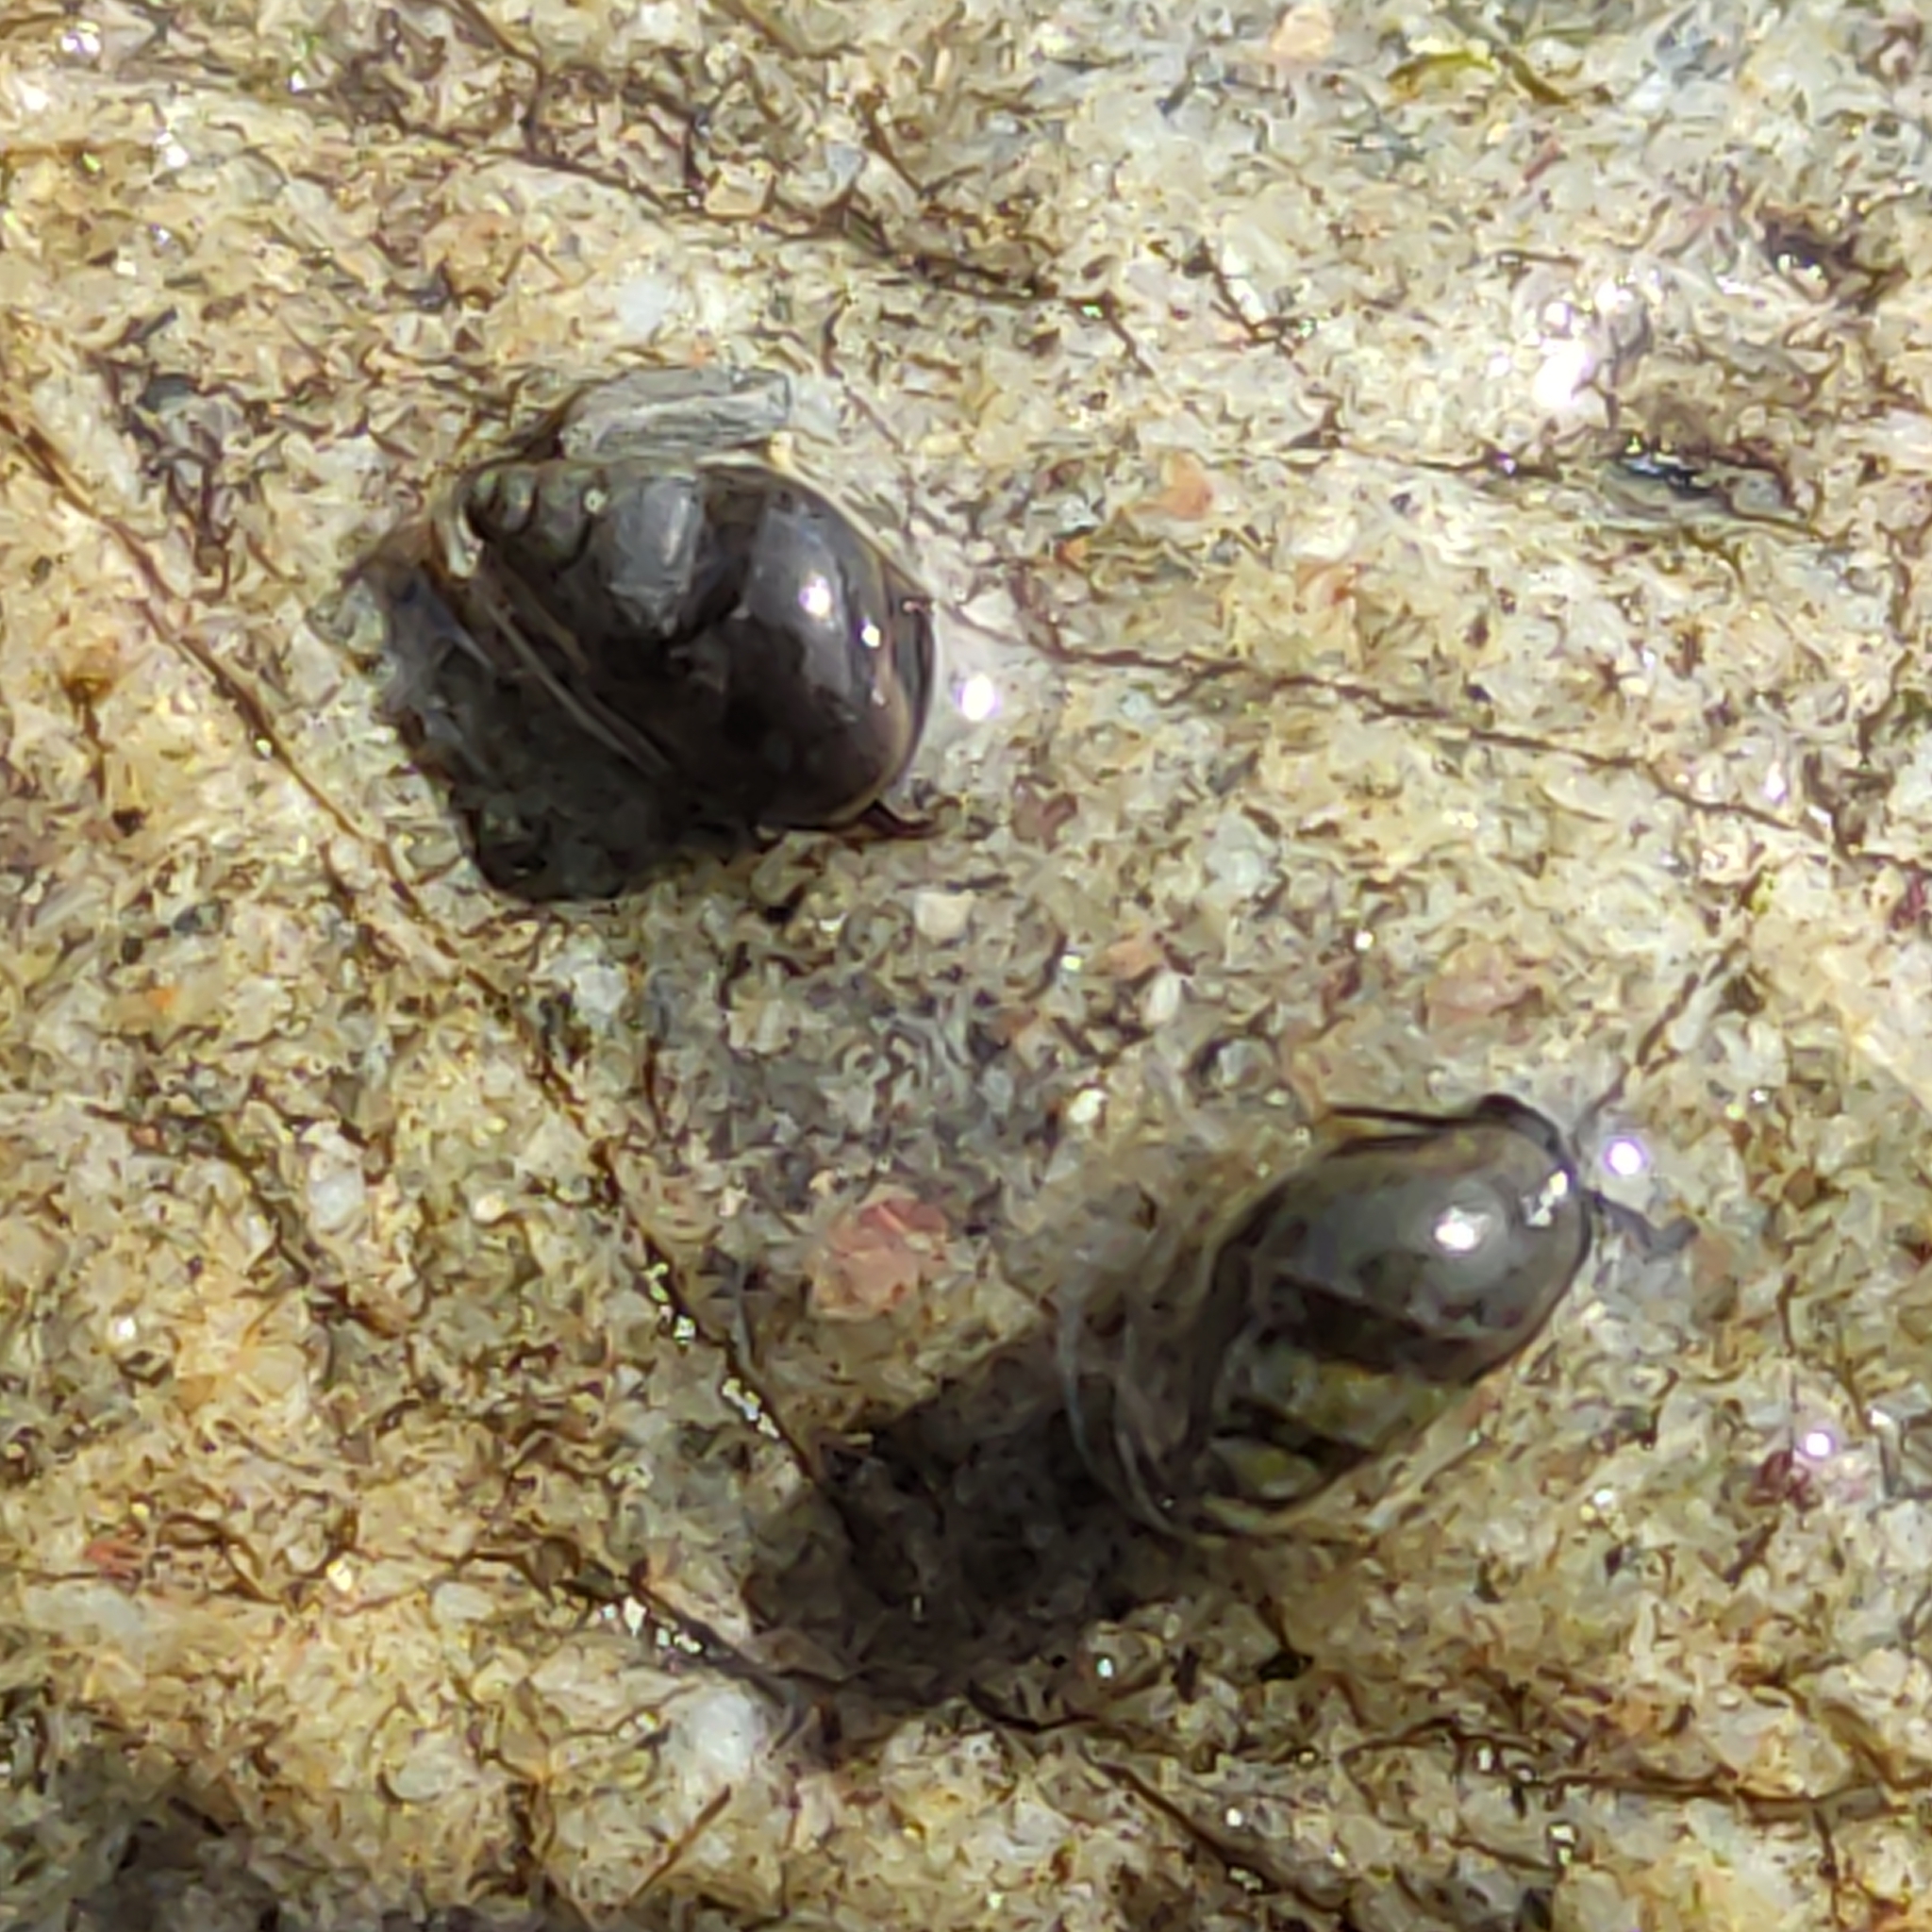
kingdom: Animalia
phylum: Mollusca
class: Gastropoda
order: Littorinimorpha
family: Tateidae
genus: Potamopyrgus
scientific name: Potamopyrgus antipodarum
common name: Jenkins' spire snail
